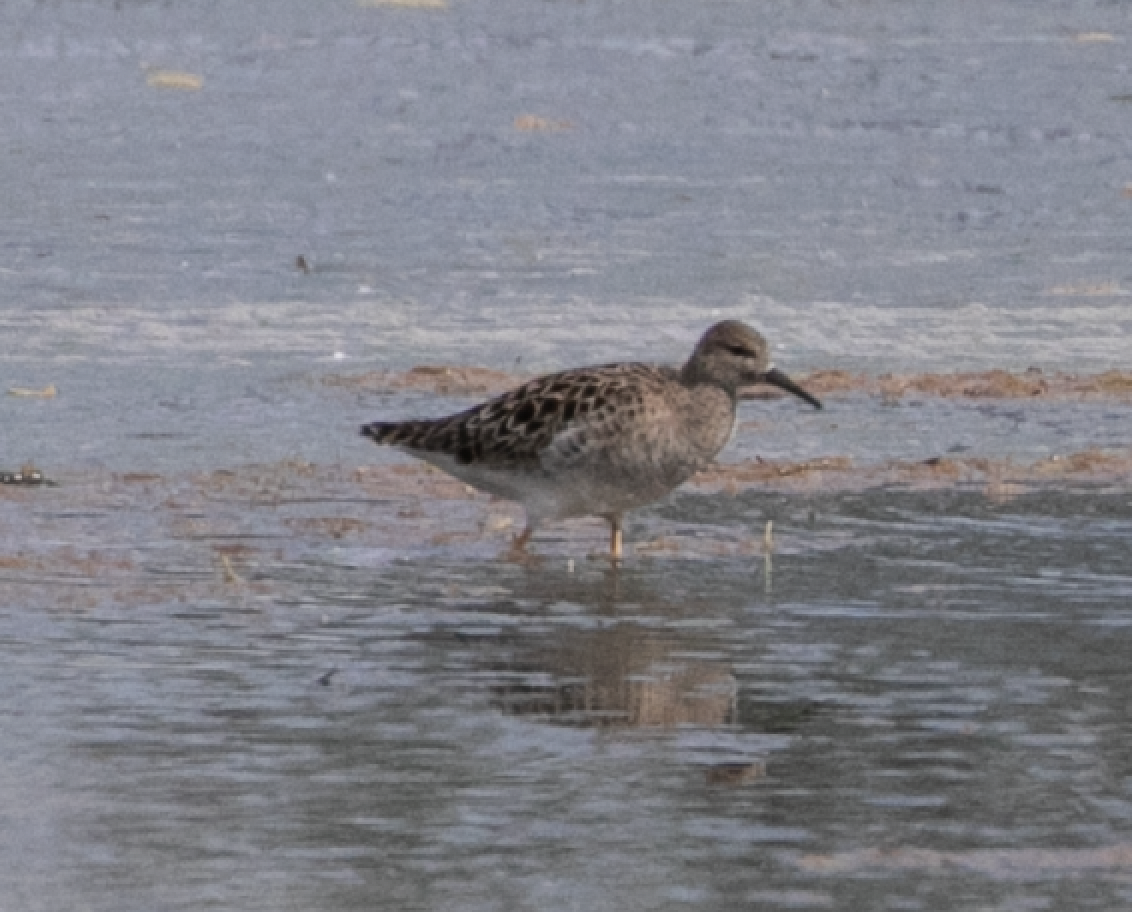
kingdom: Animalia
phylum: Chordata
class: Aves
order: Charadriiformes
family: Scolopacidae
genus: Calidris
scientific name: Calidris pugnax
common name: Ruff
